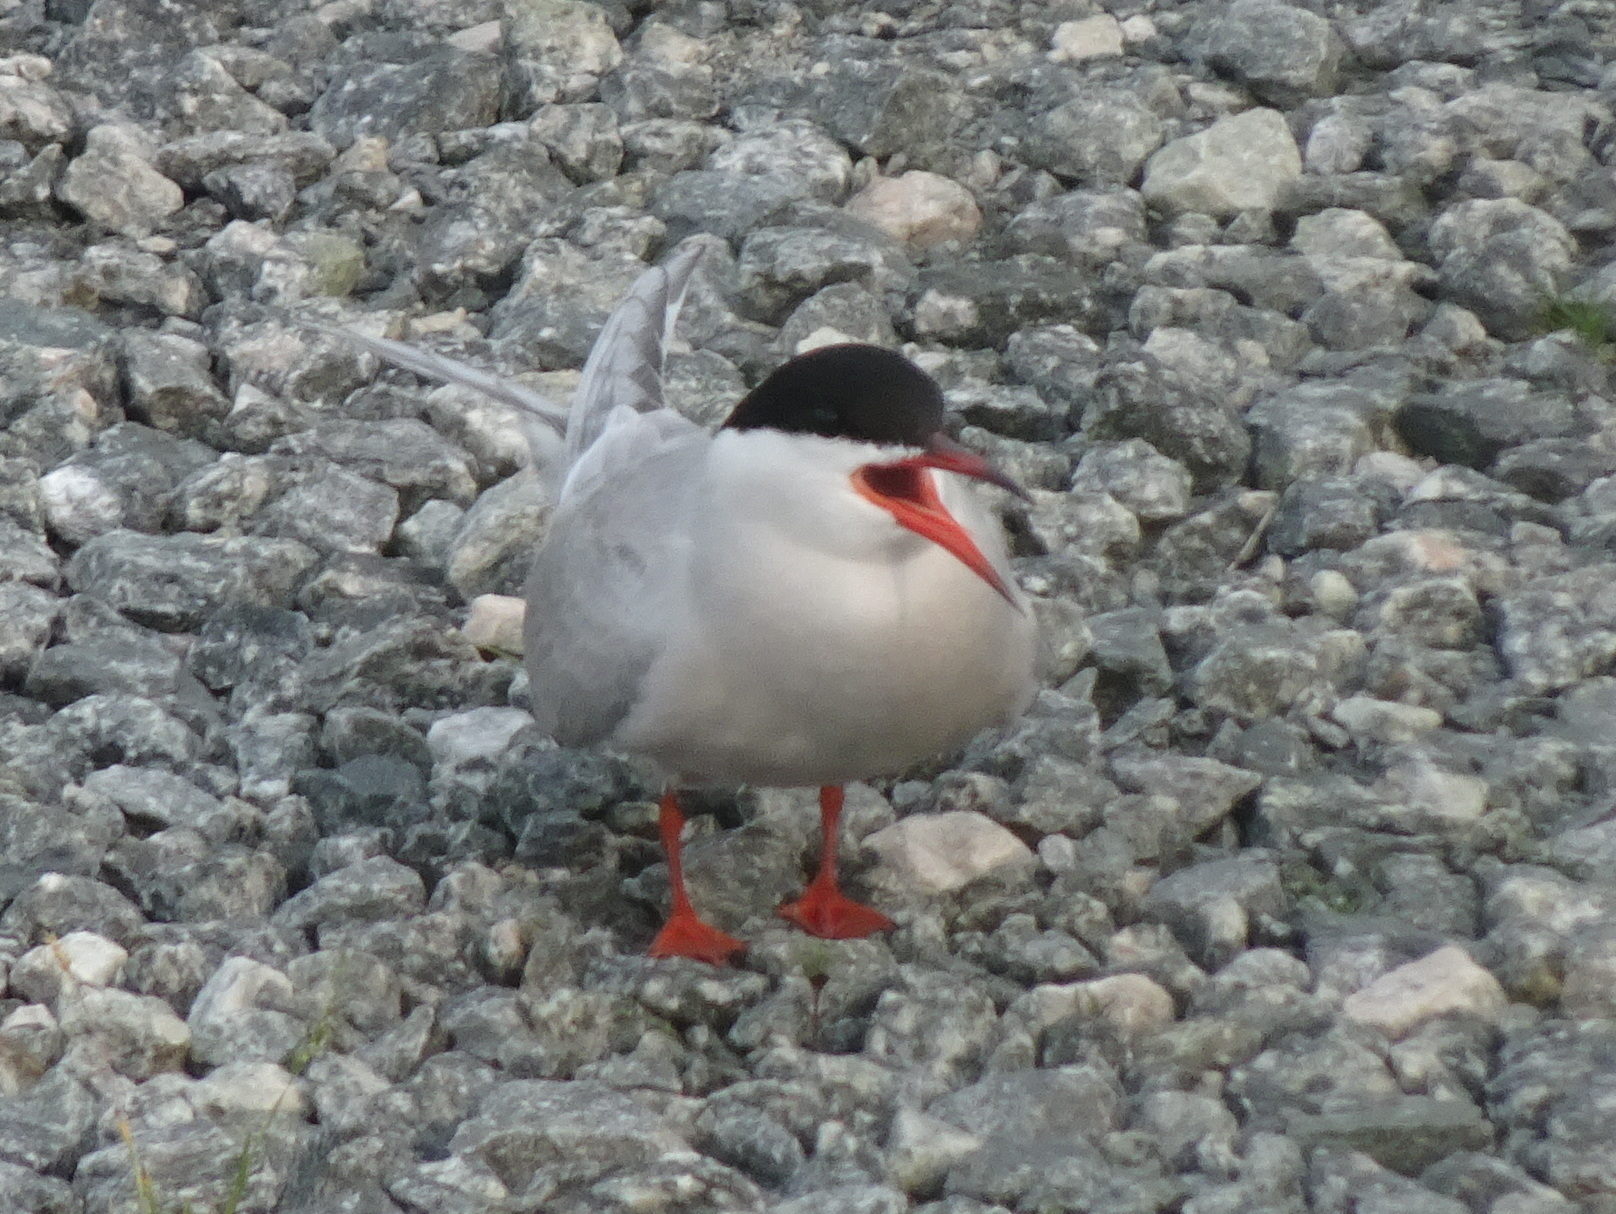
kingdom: Animalia
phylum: Chordata
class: Aves
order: Charadriiformes
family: Laridae
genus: Sterna
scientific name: Sterna hirundo
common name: Common tern
